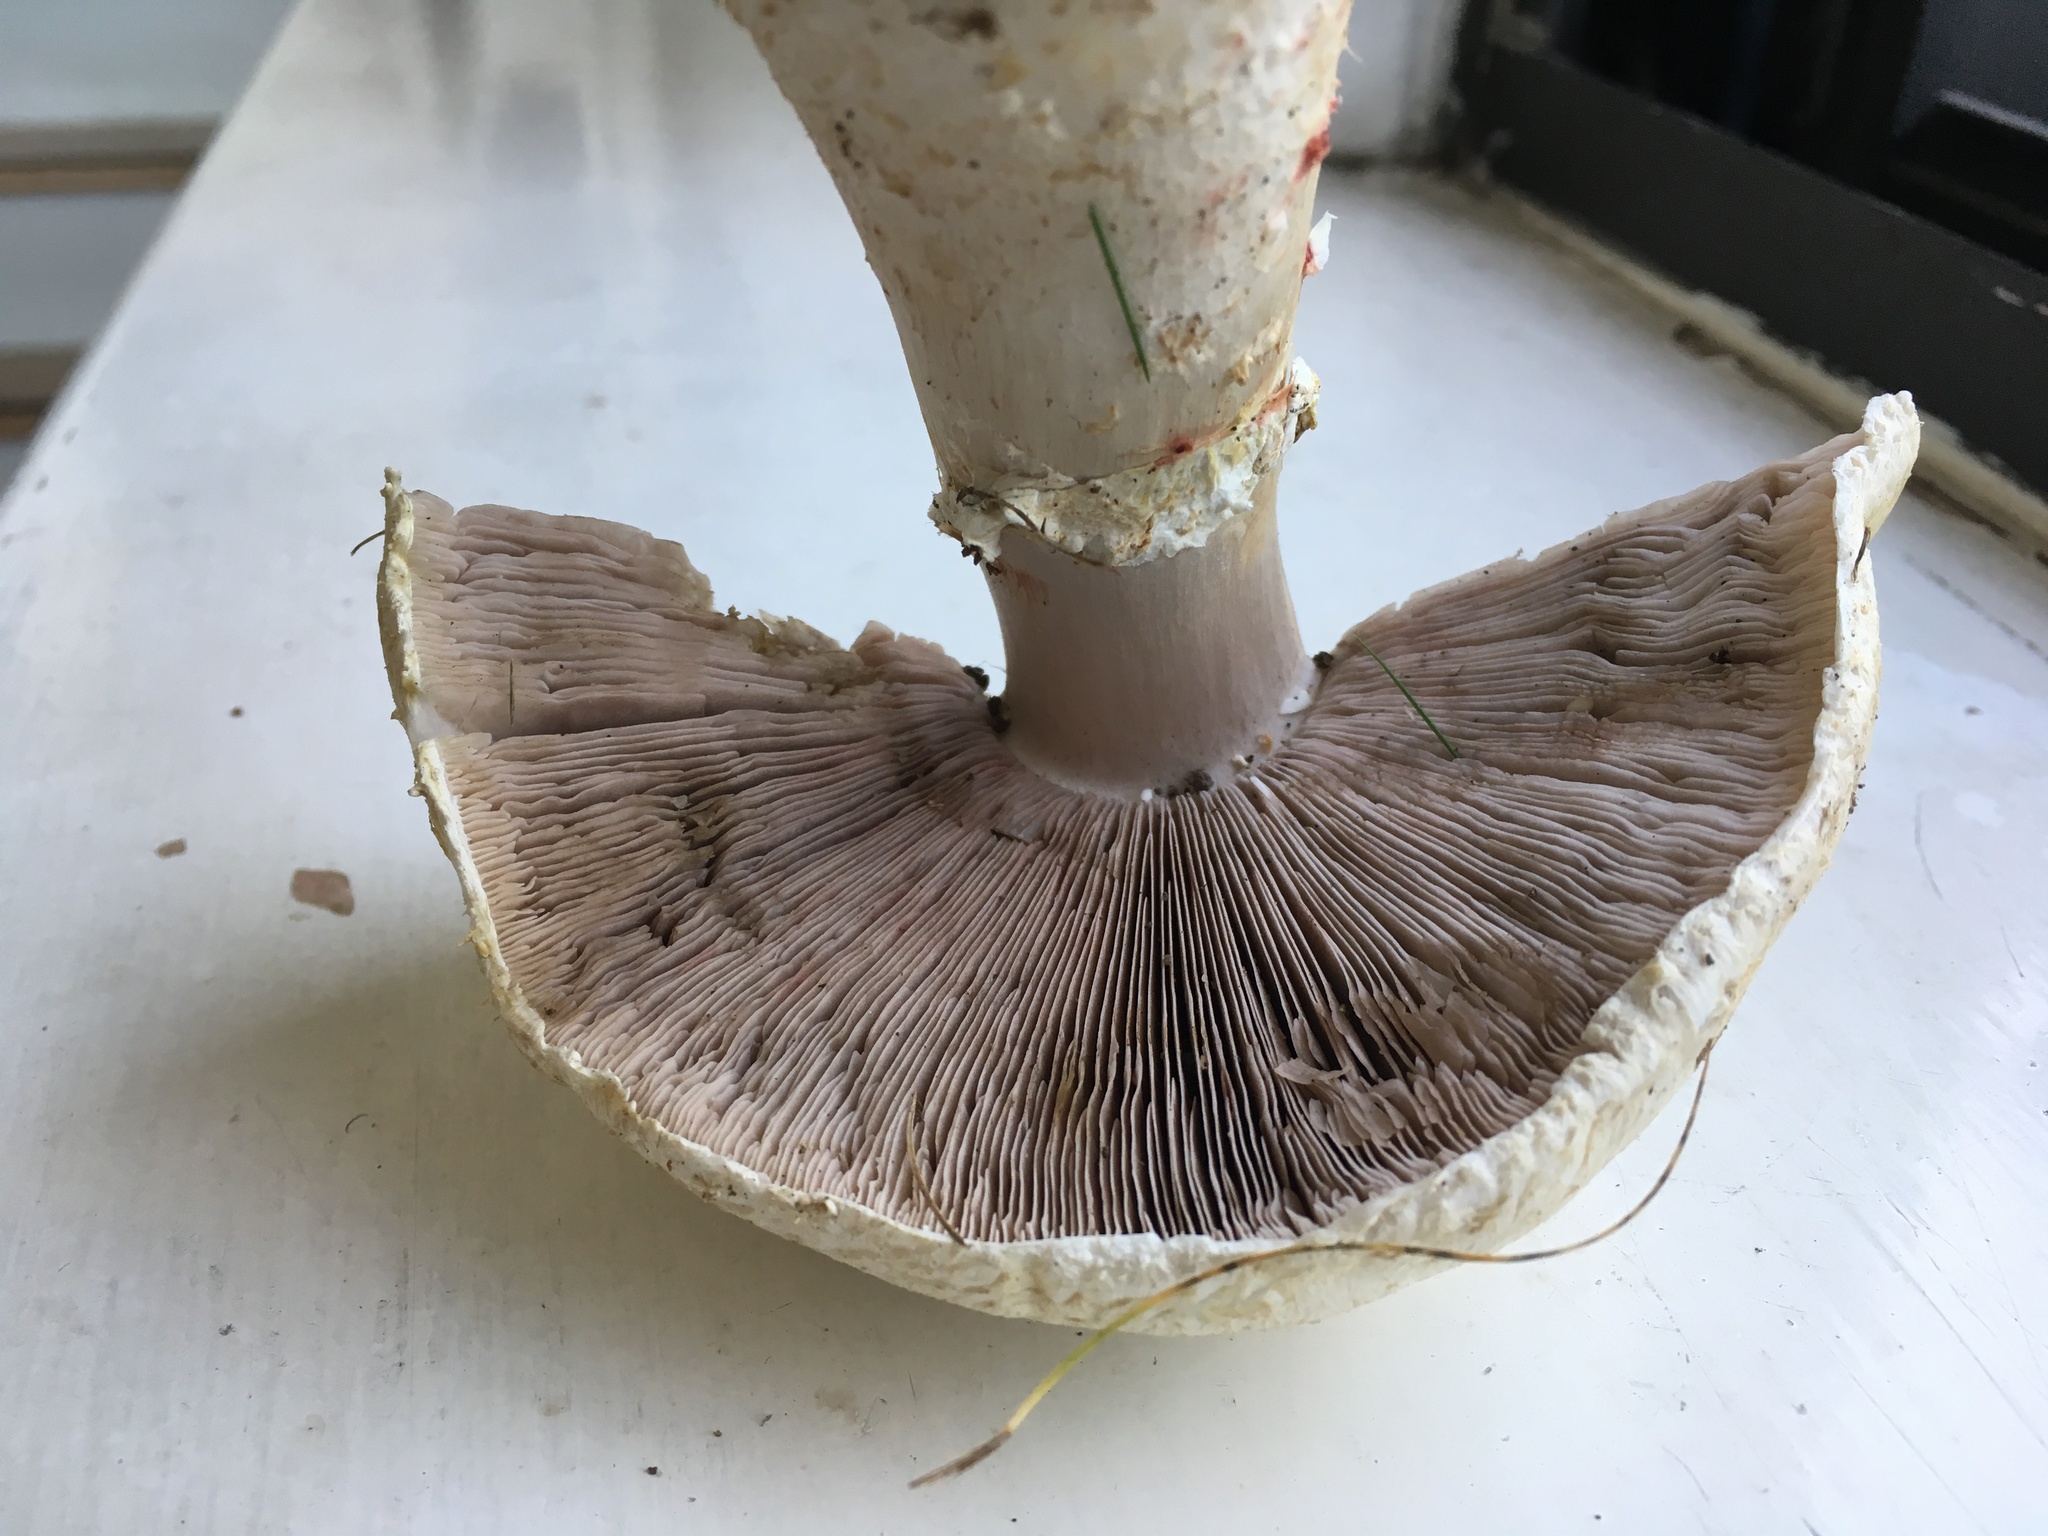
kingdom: Fungi
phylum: Basidiomycota
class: Agaricomycetes
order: Agaricales
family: Agaricaceae
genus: Agaricus
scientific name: Agaricus arvensis
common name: Horse mushroom
